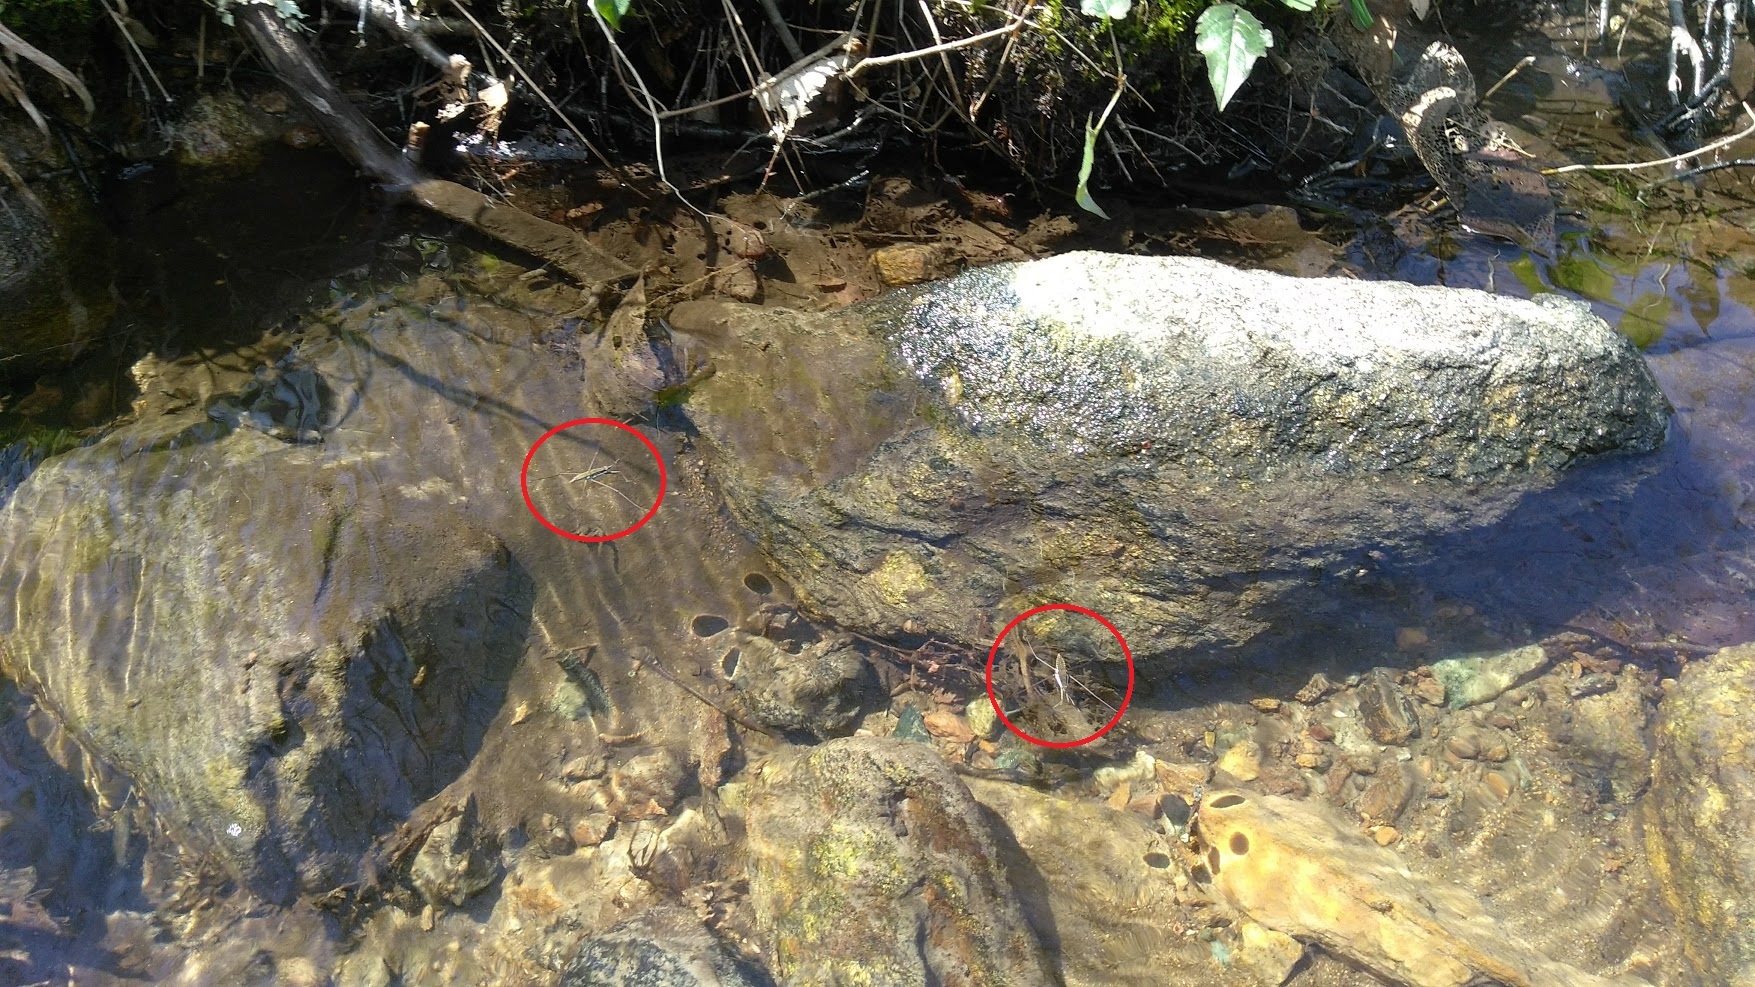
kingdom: Animalia
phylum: Arthropoda
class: Insecta
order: Hemiptera
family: Gerridae
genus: Aquarius
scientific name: Aquarius remigis
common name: Common water strider
